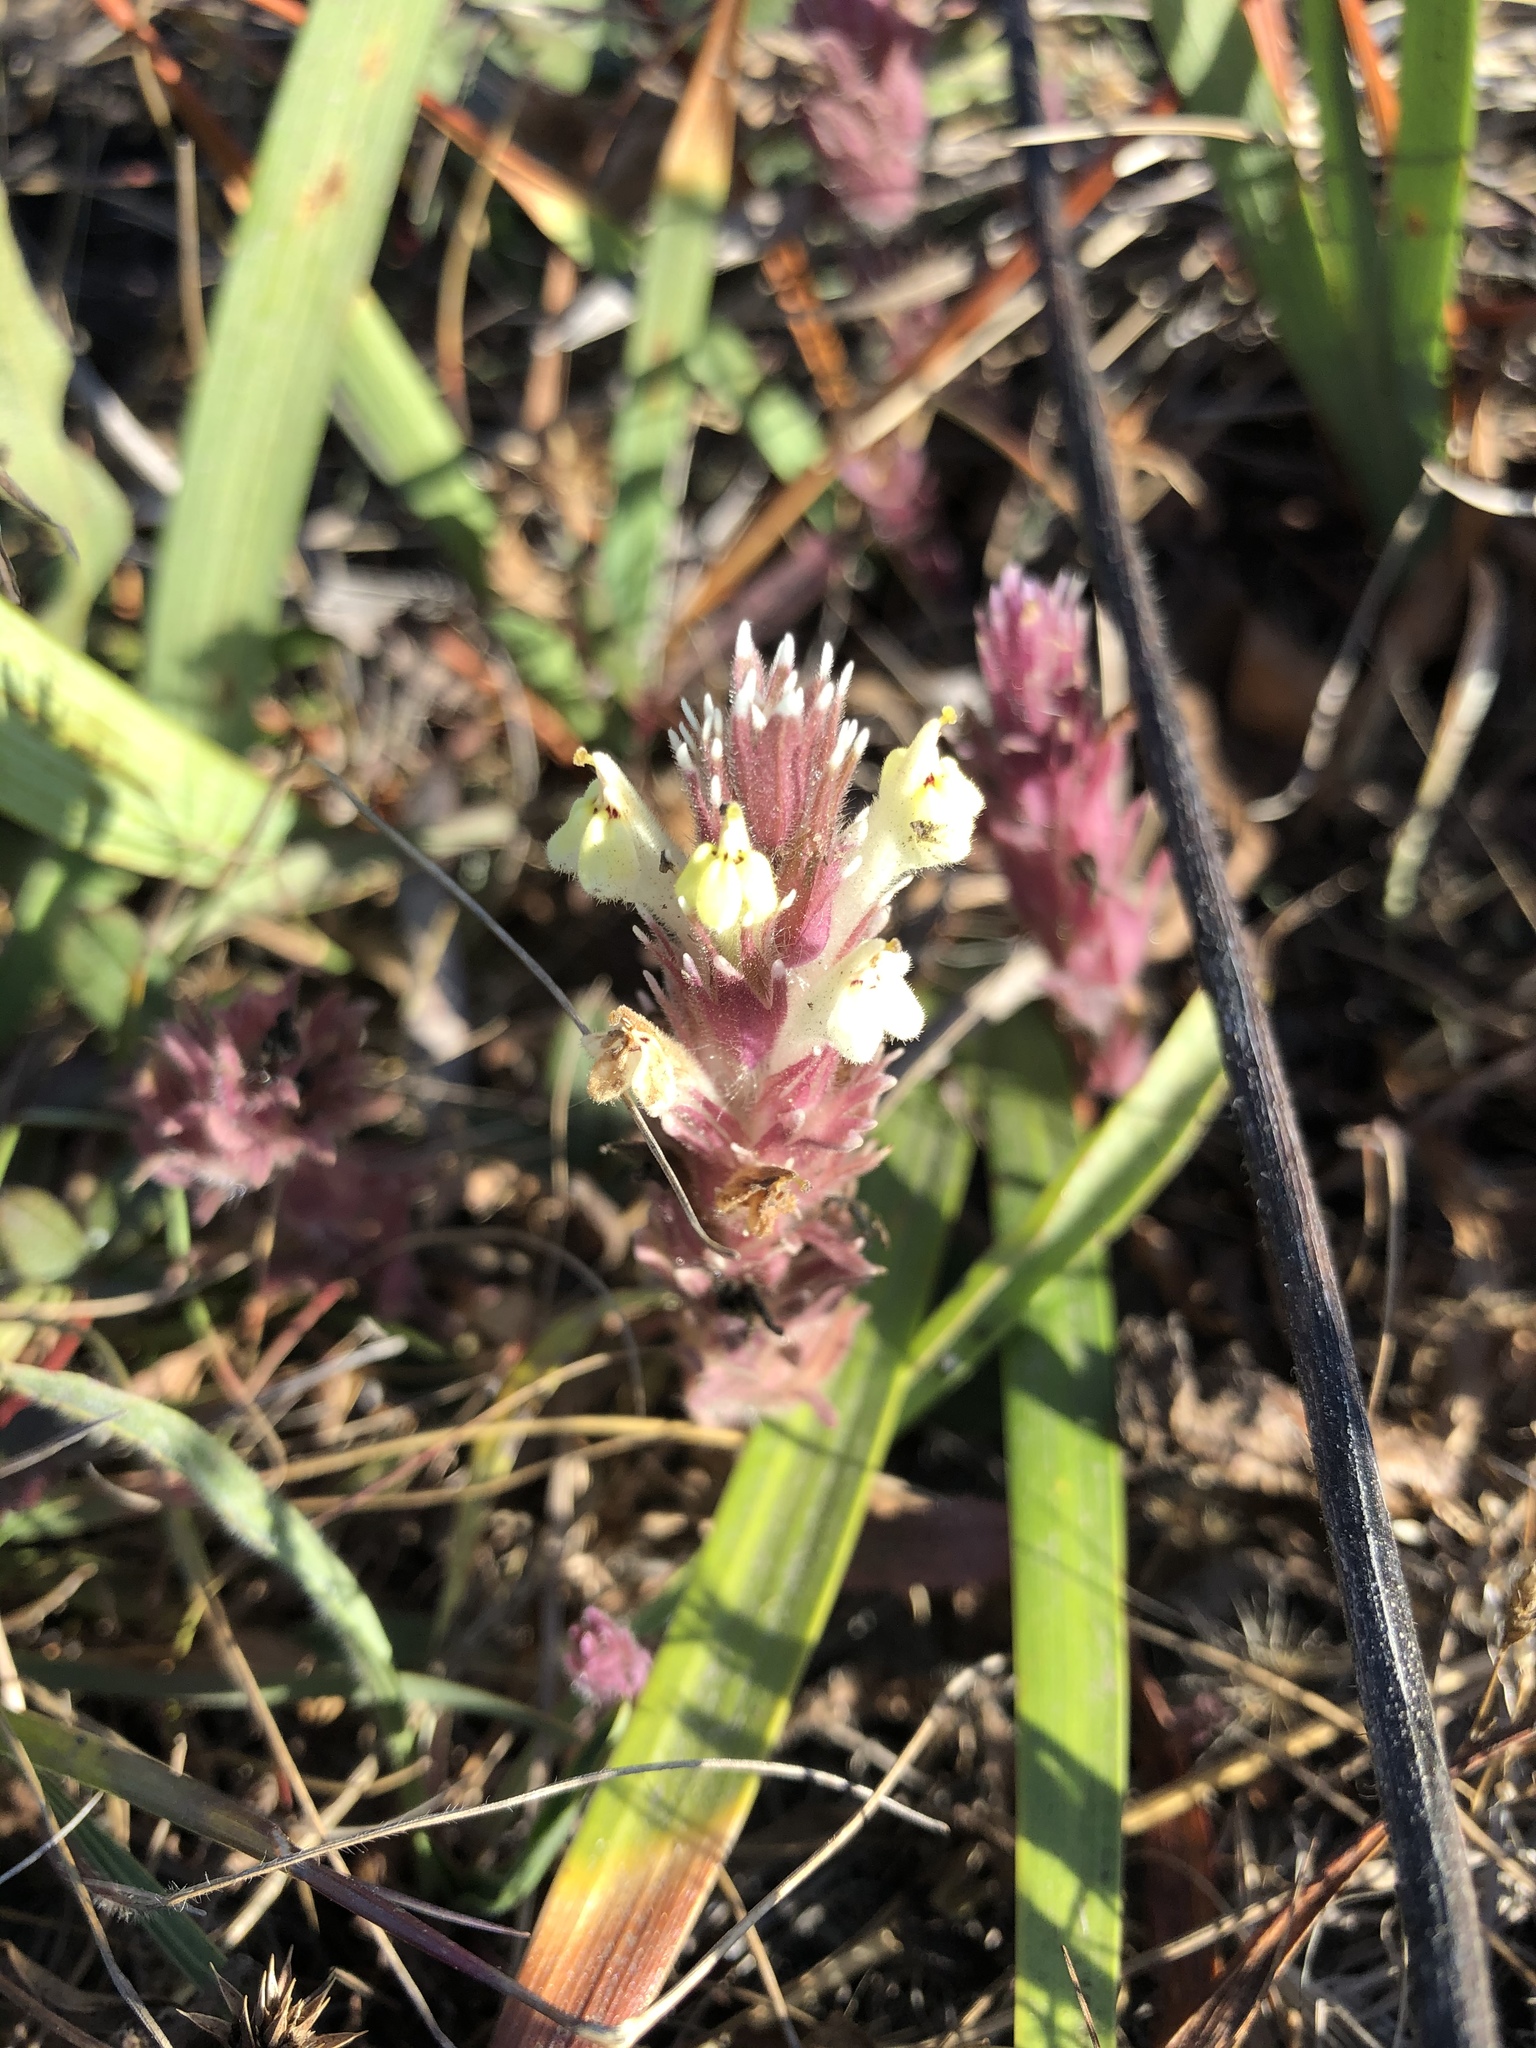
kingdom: Plantae
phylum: Tracheophyta
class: Magnoliopsida
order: Lamiales
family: Orobanchaceae
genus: Castilleja
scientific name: Castilleja ambigua
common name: Johnny-nip
